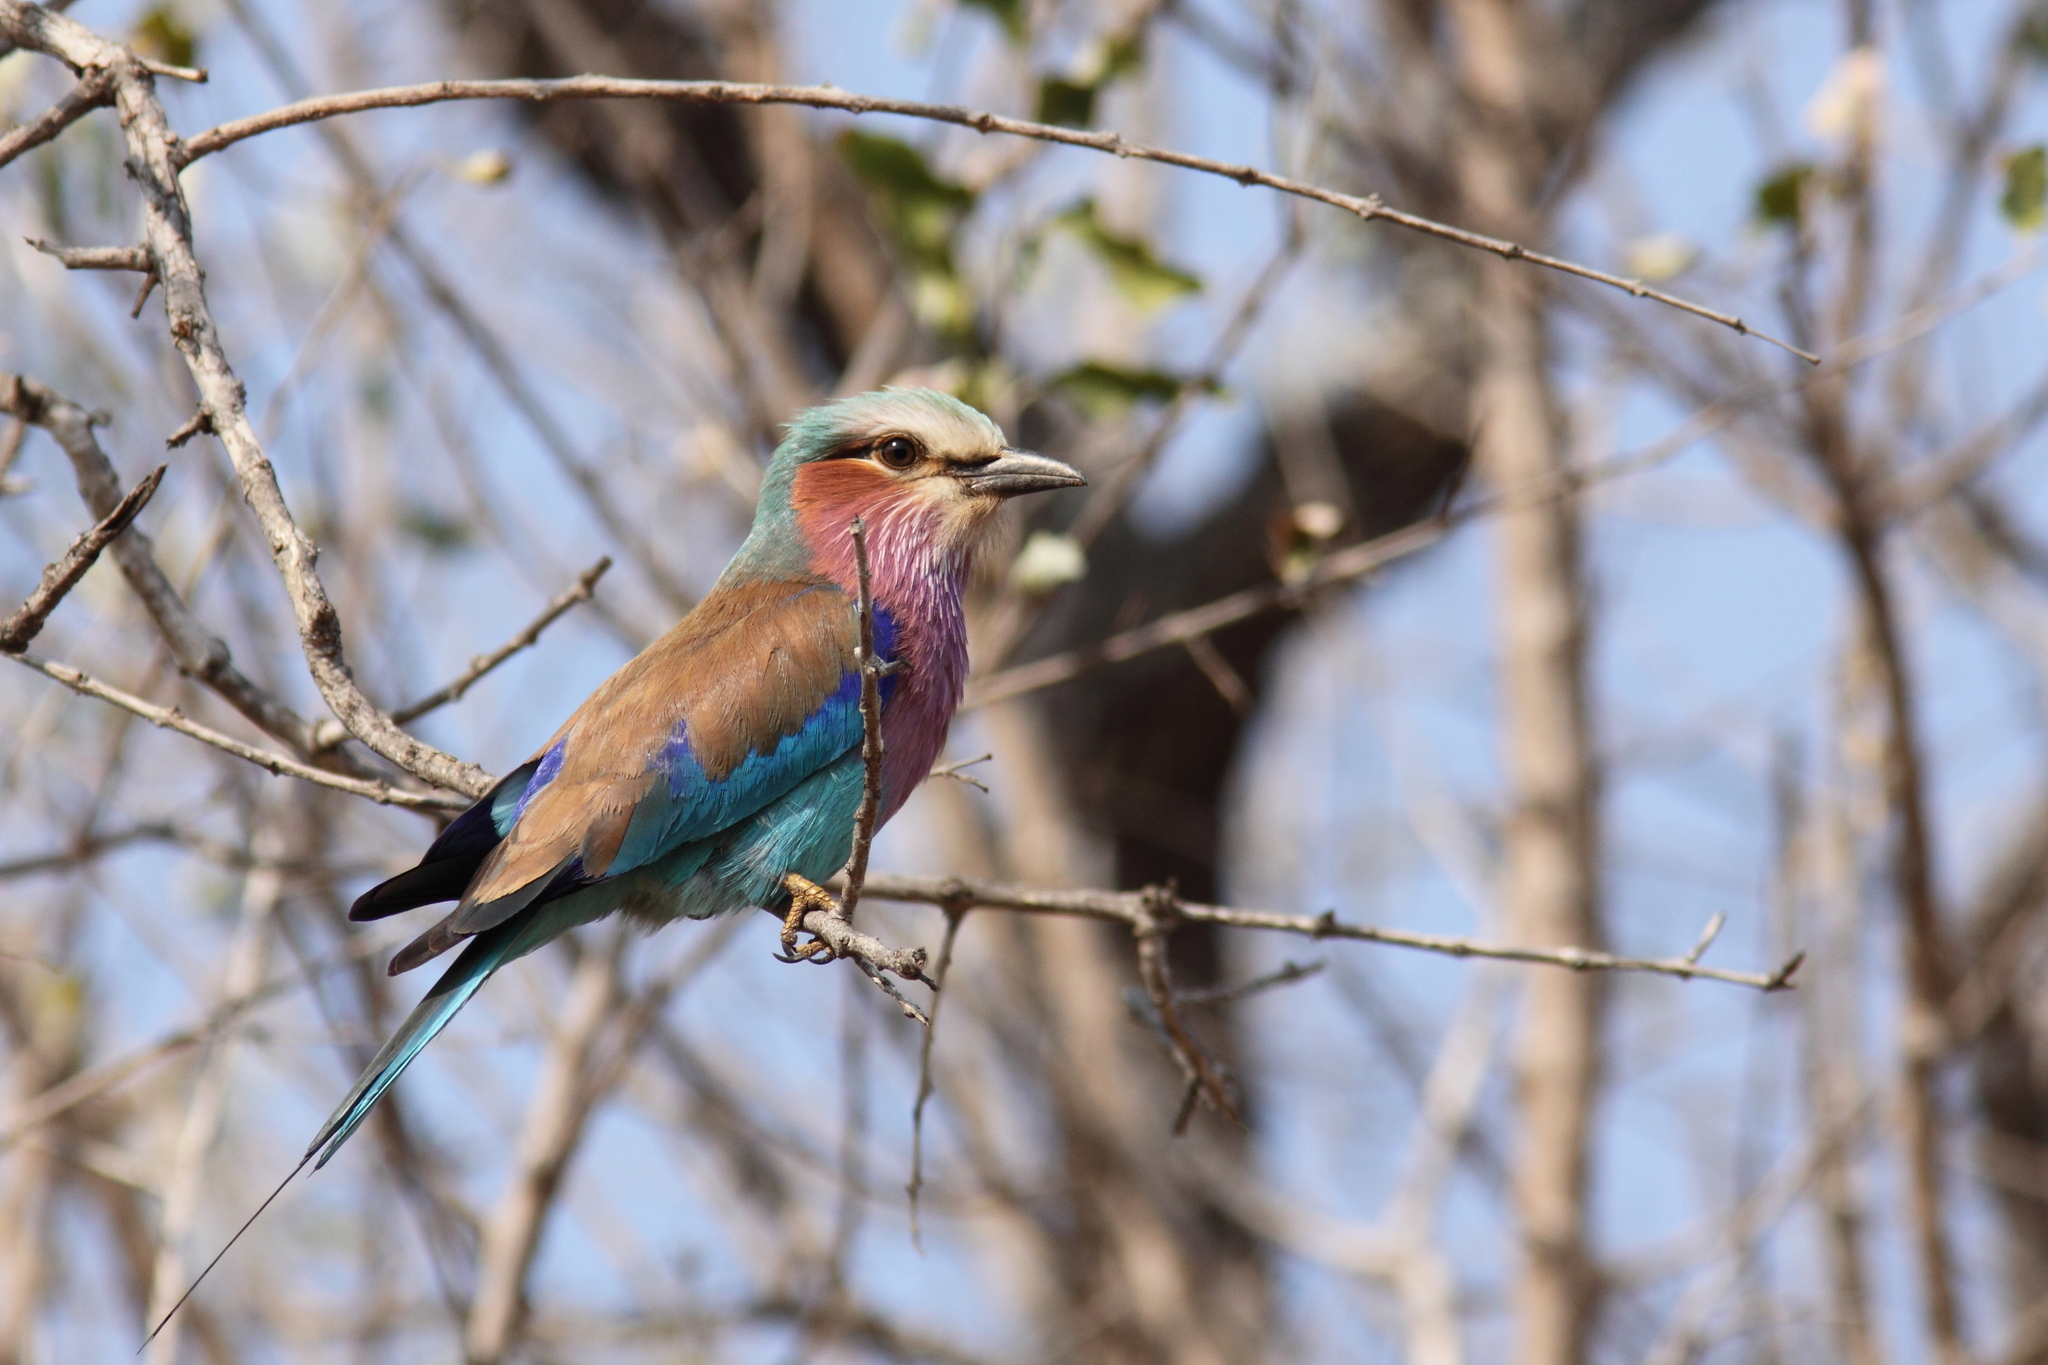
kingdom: Animalia
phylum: Chordata
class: Aves
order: Coraciiformes
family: Coraciidae
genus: Coracias
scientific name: Coracias caudatus
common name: Lilac-breasted roller
